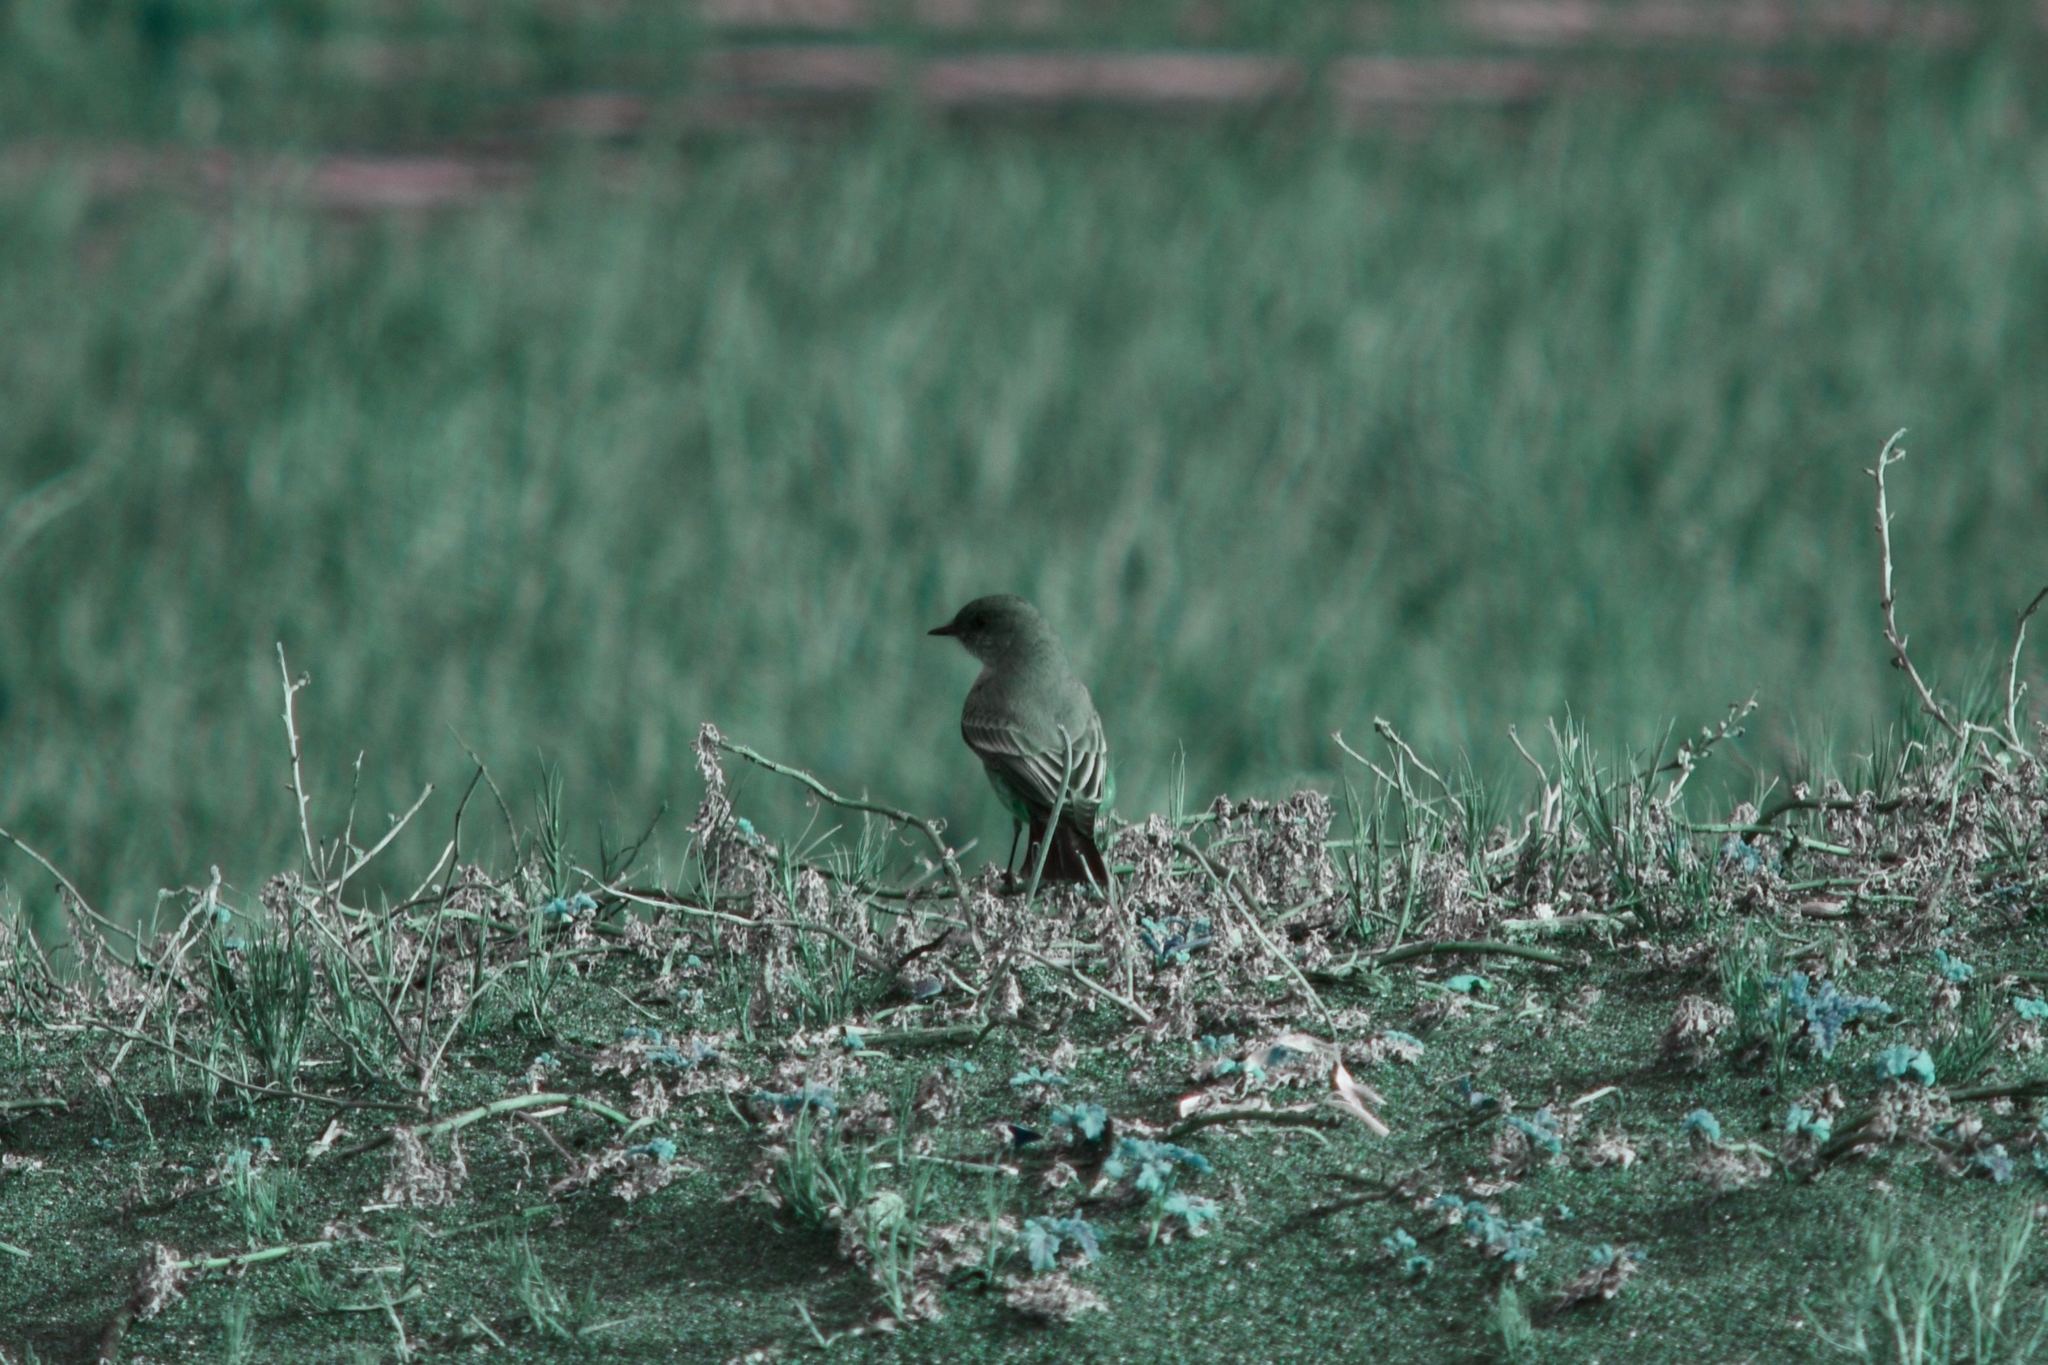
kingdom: Animalia
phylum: Chordata
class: Aves
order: Passeriformes
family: Tyrannidae
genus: Sayornis
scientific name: Sayornis saya
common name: Say's phoebe
